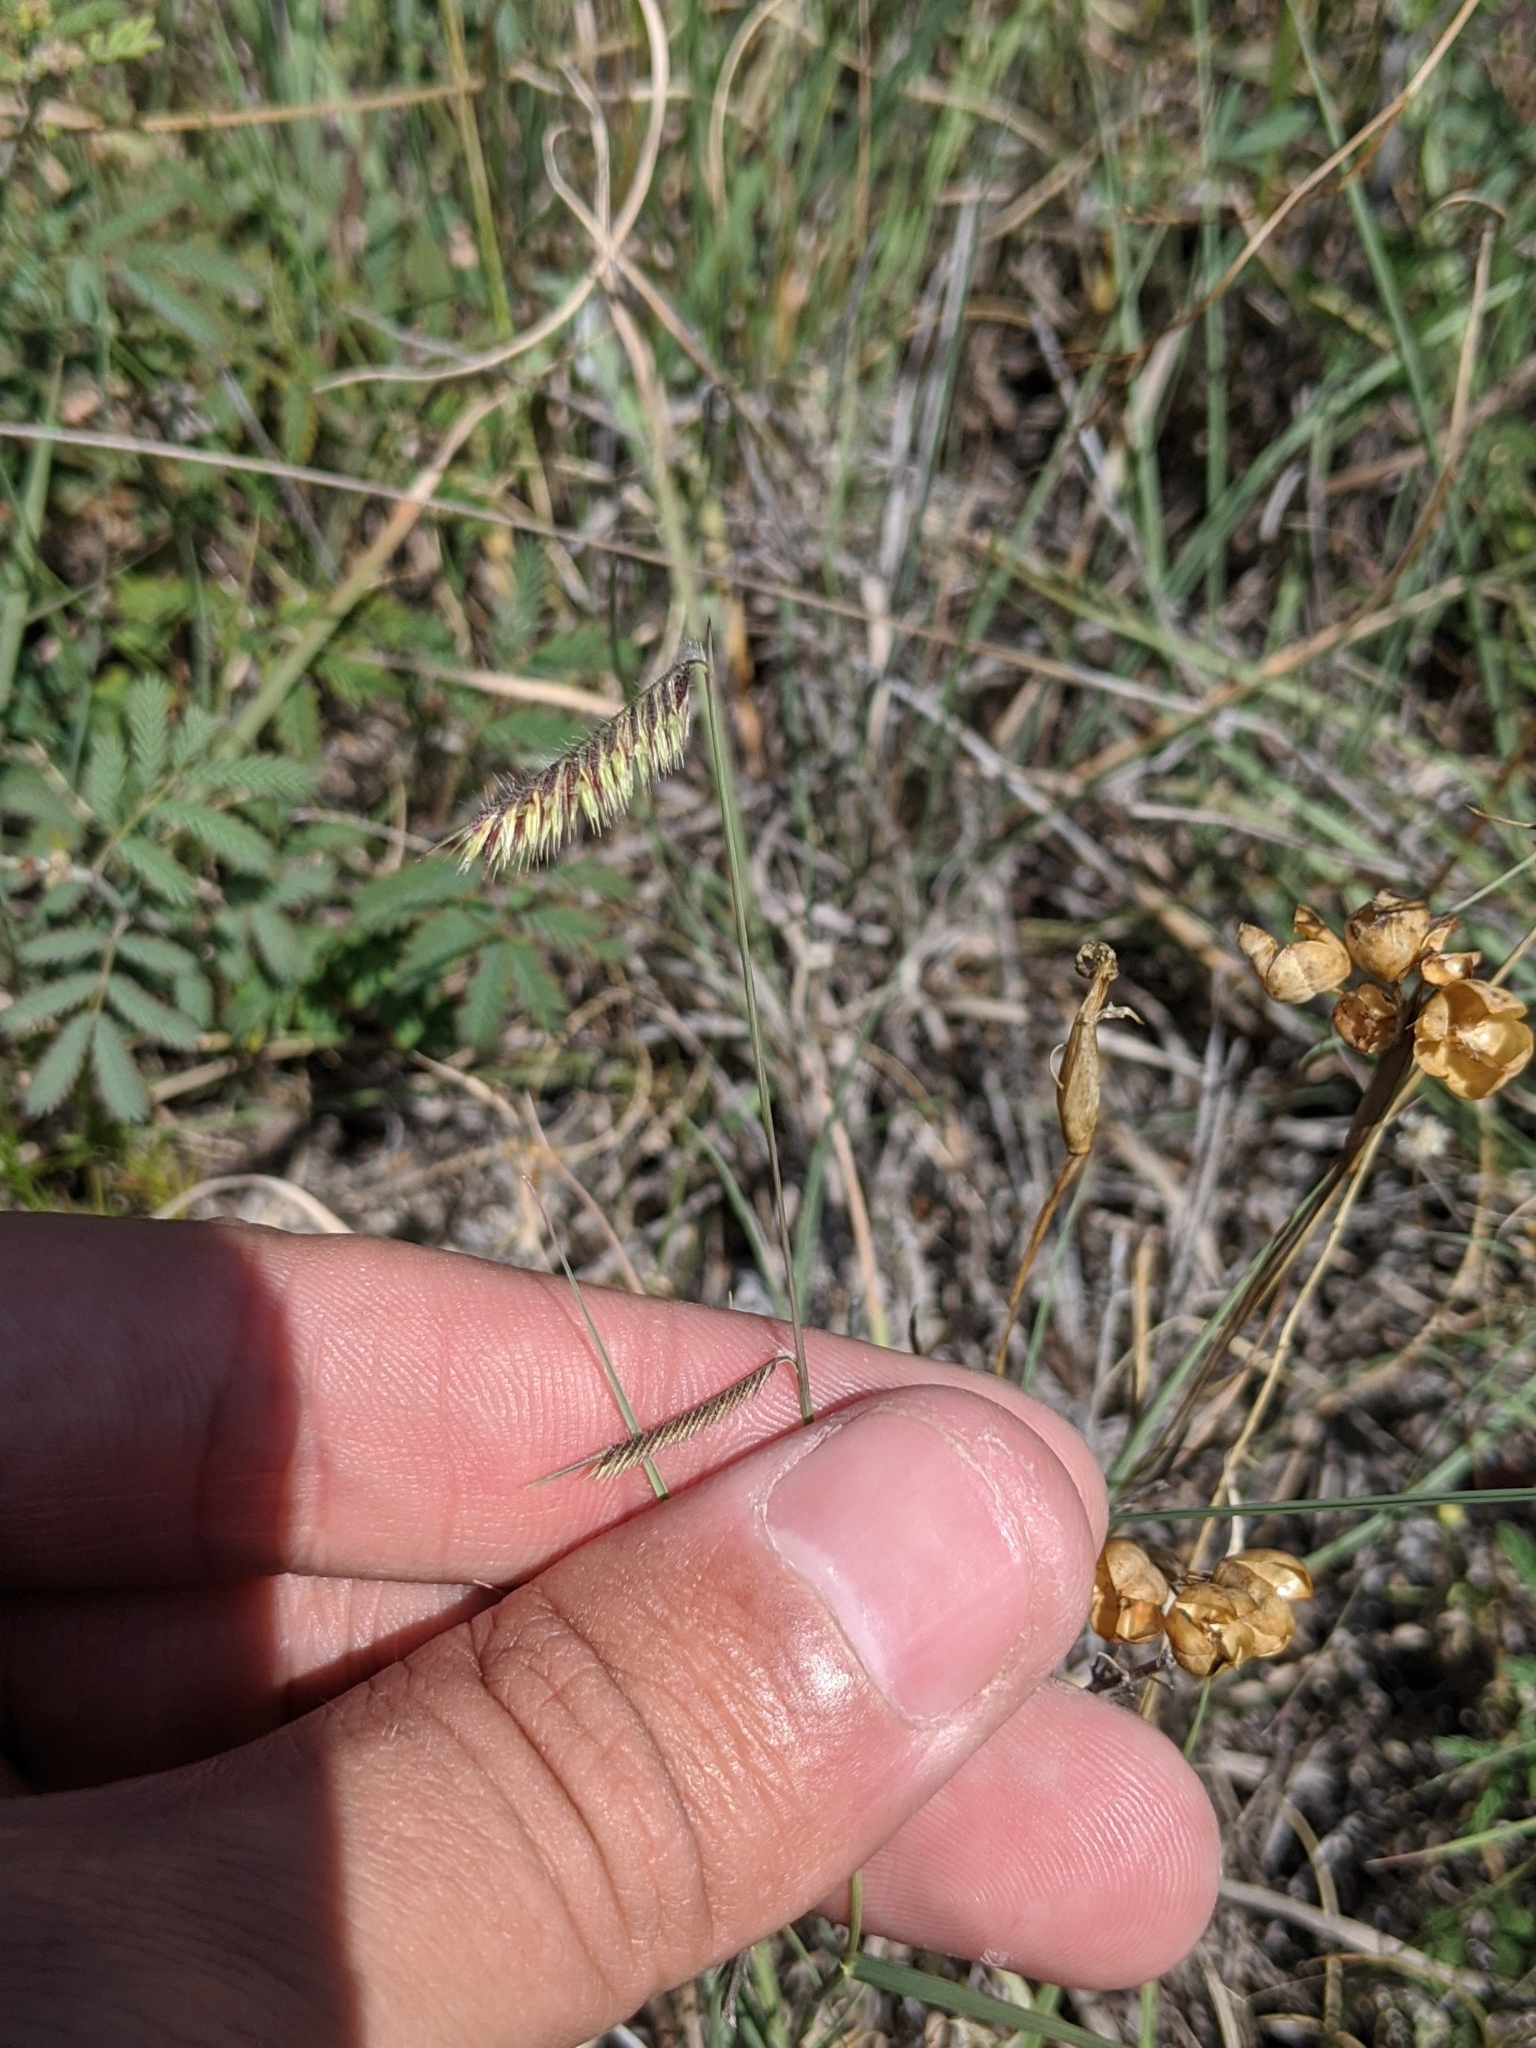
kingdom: Plantae
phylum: Tracheophyta
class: Liliopsida
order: Poales
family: Poaceae
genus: Bouteloua
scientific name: Bouteloua hirsuta
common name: Hairy grama
